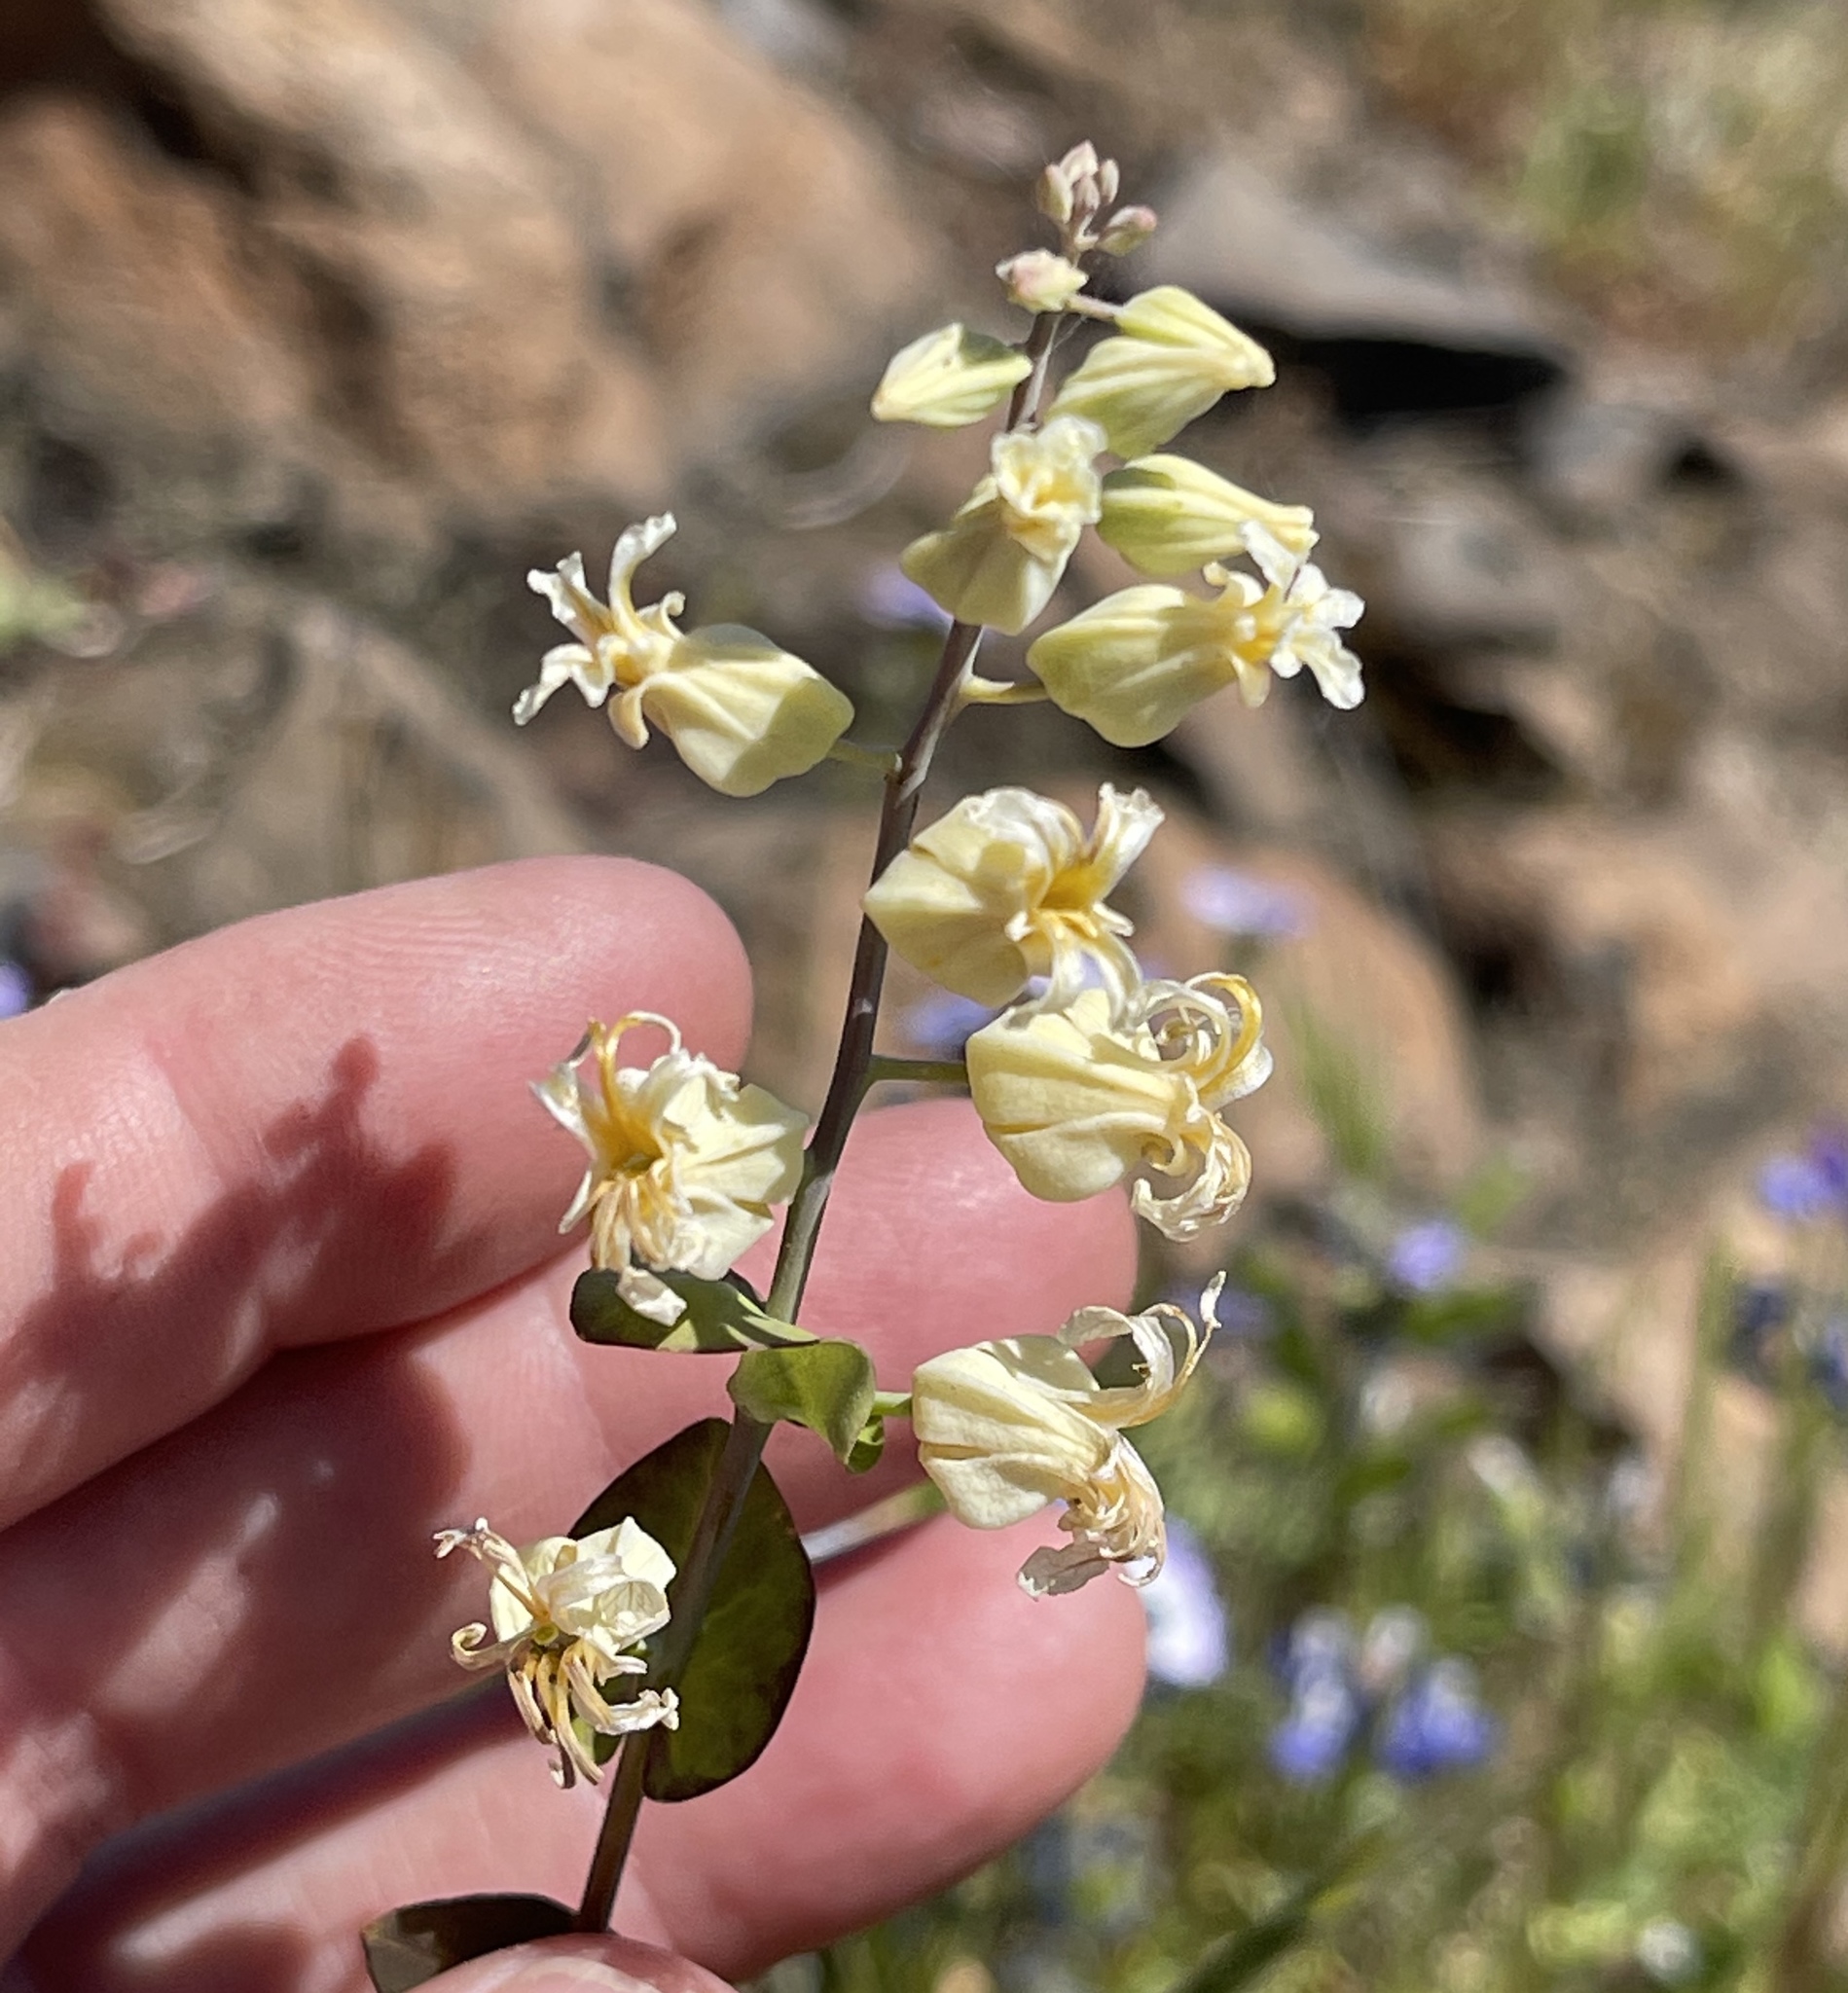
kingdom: Plantae
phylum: Tracheophyta
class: Magnoliopsida
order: Brassicales
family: Brassicaceae
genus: Streptanthus
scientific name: Streptanthus tortuosus
